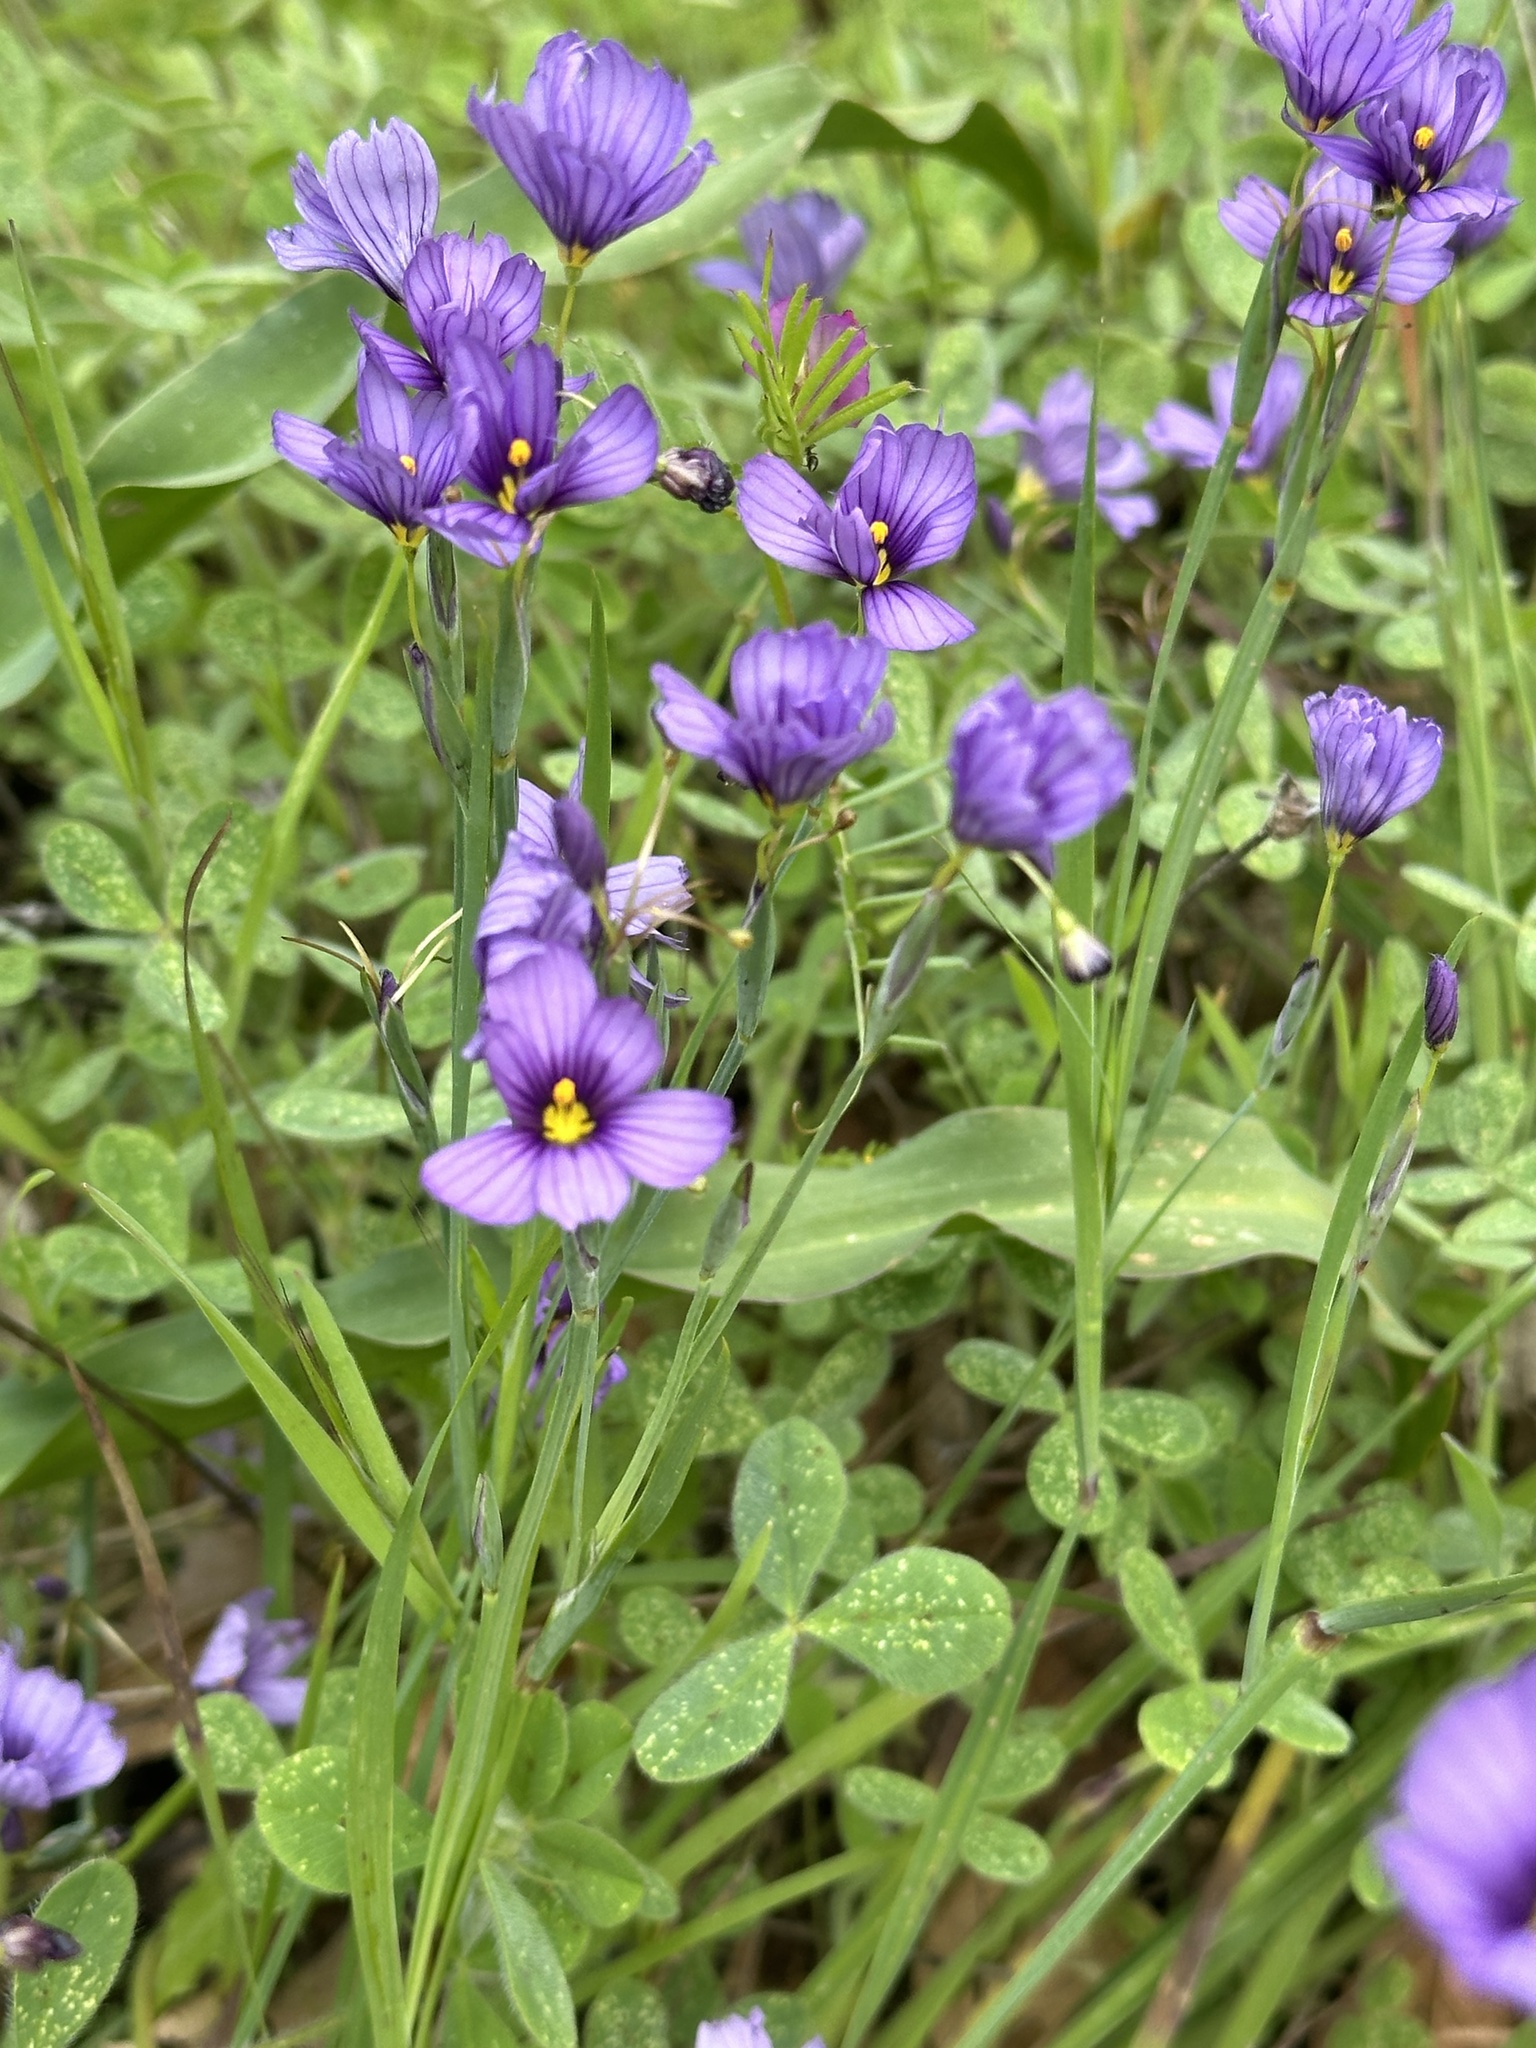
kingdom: Plantae
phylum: Tracheophyta
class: Liliopsida
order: Asparagales
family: Iridaceae
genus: Sisyrinchium
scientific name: Sisyrinchium bellum
